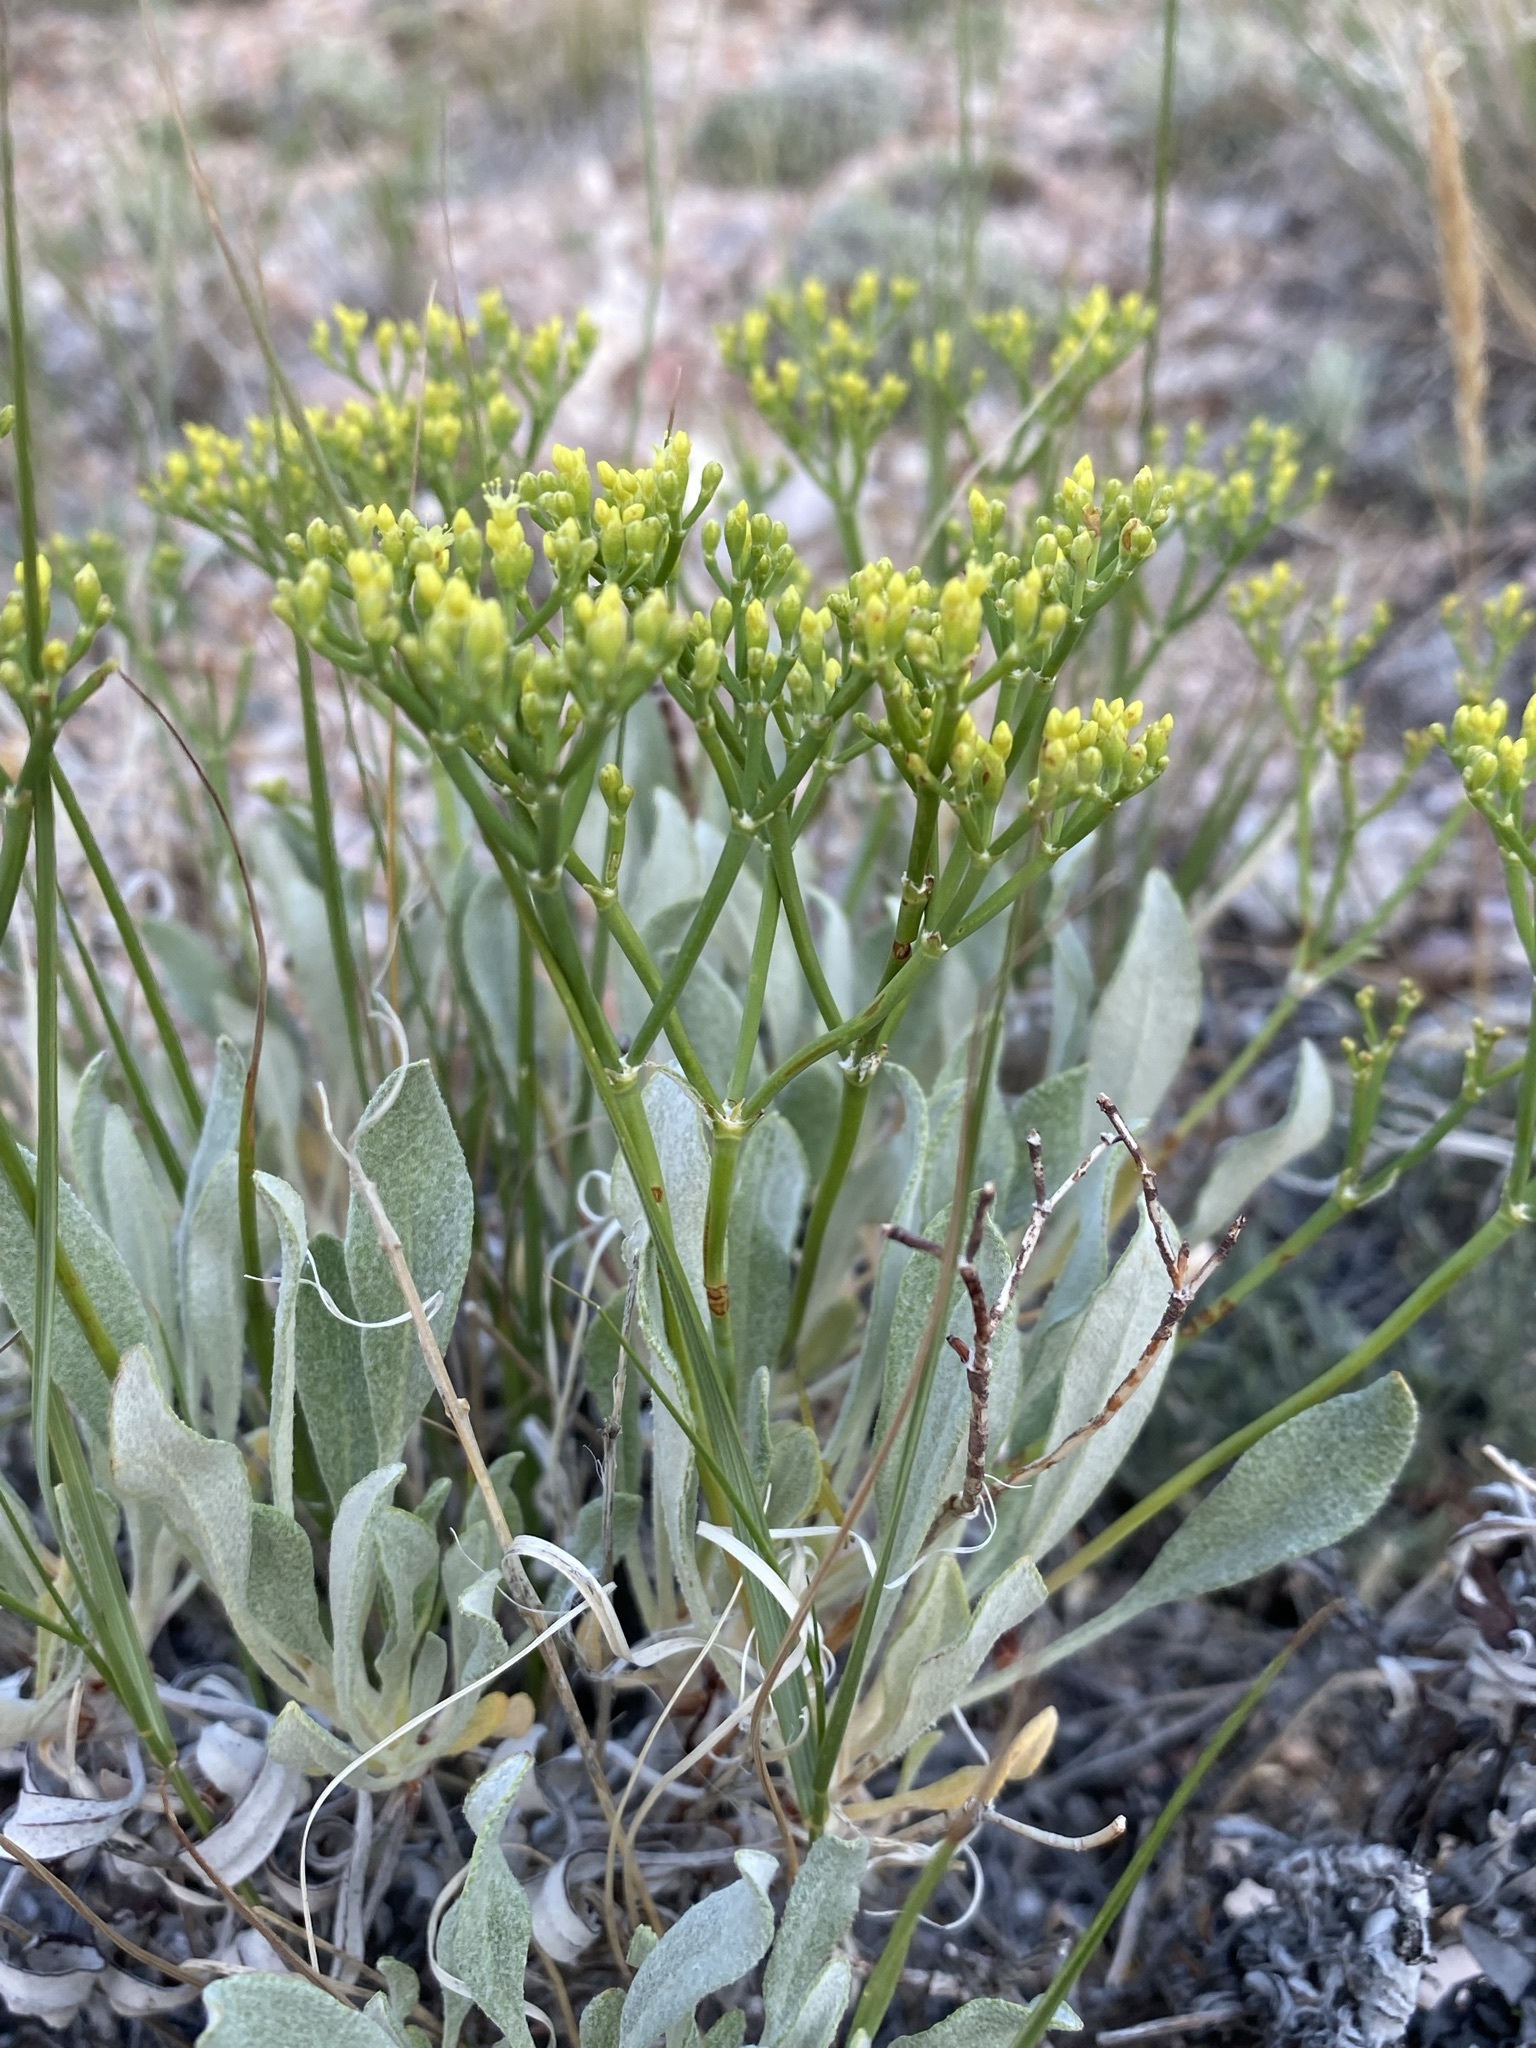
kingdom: Plantae
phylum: Tracheophyta
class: Magnoliopsida
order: Caryophyllales
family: Polygonaceae
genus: Eriogonum
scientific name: Eriogonum brevicaule
